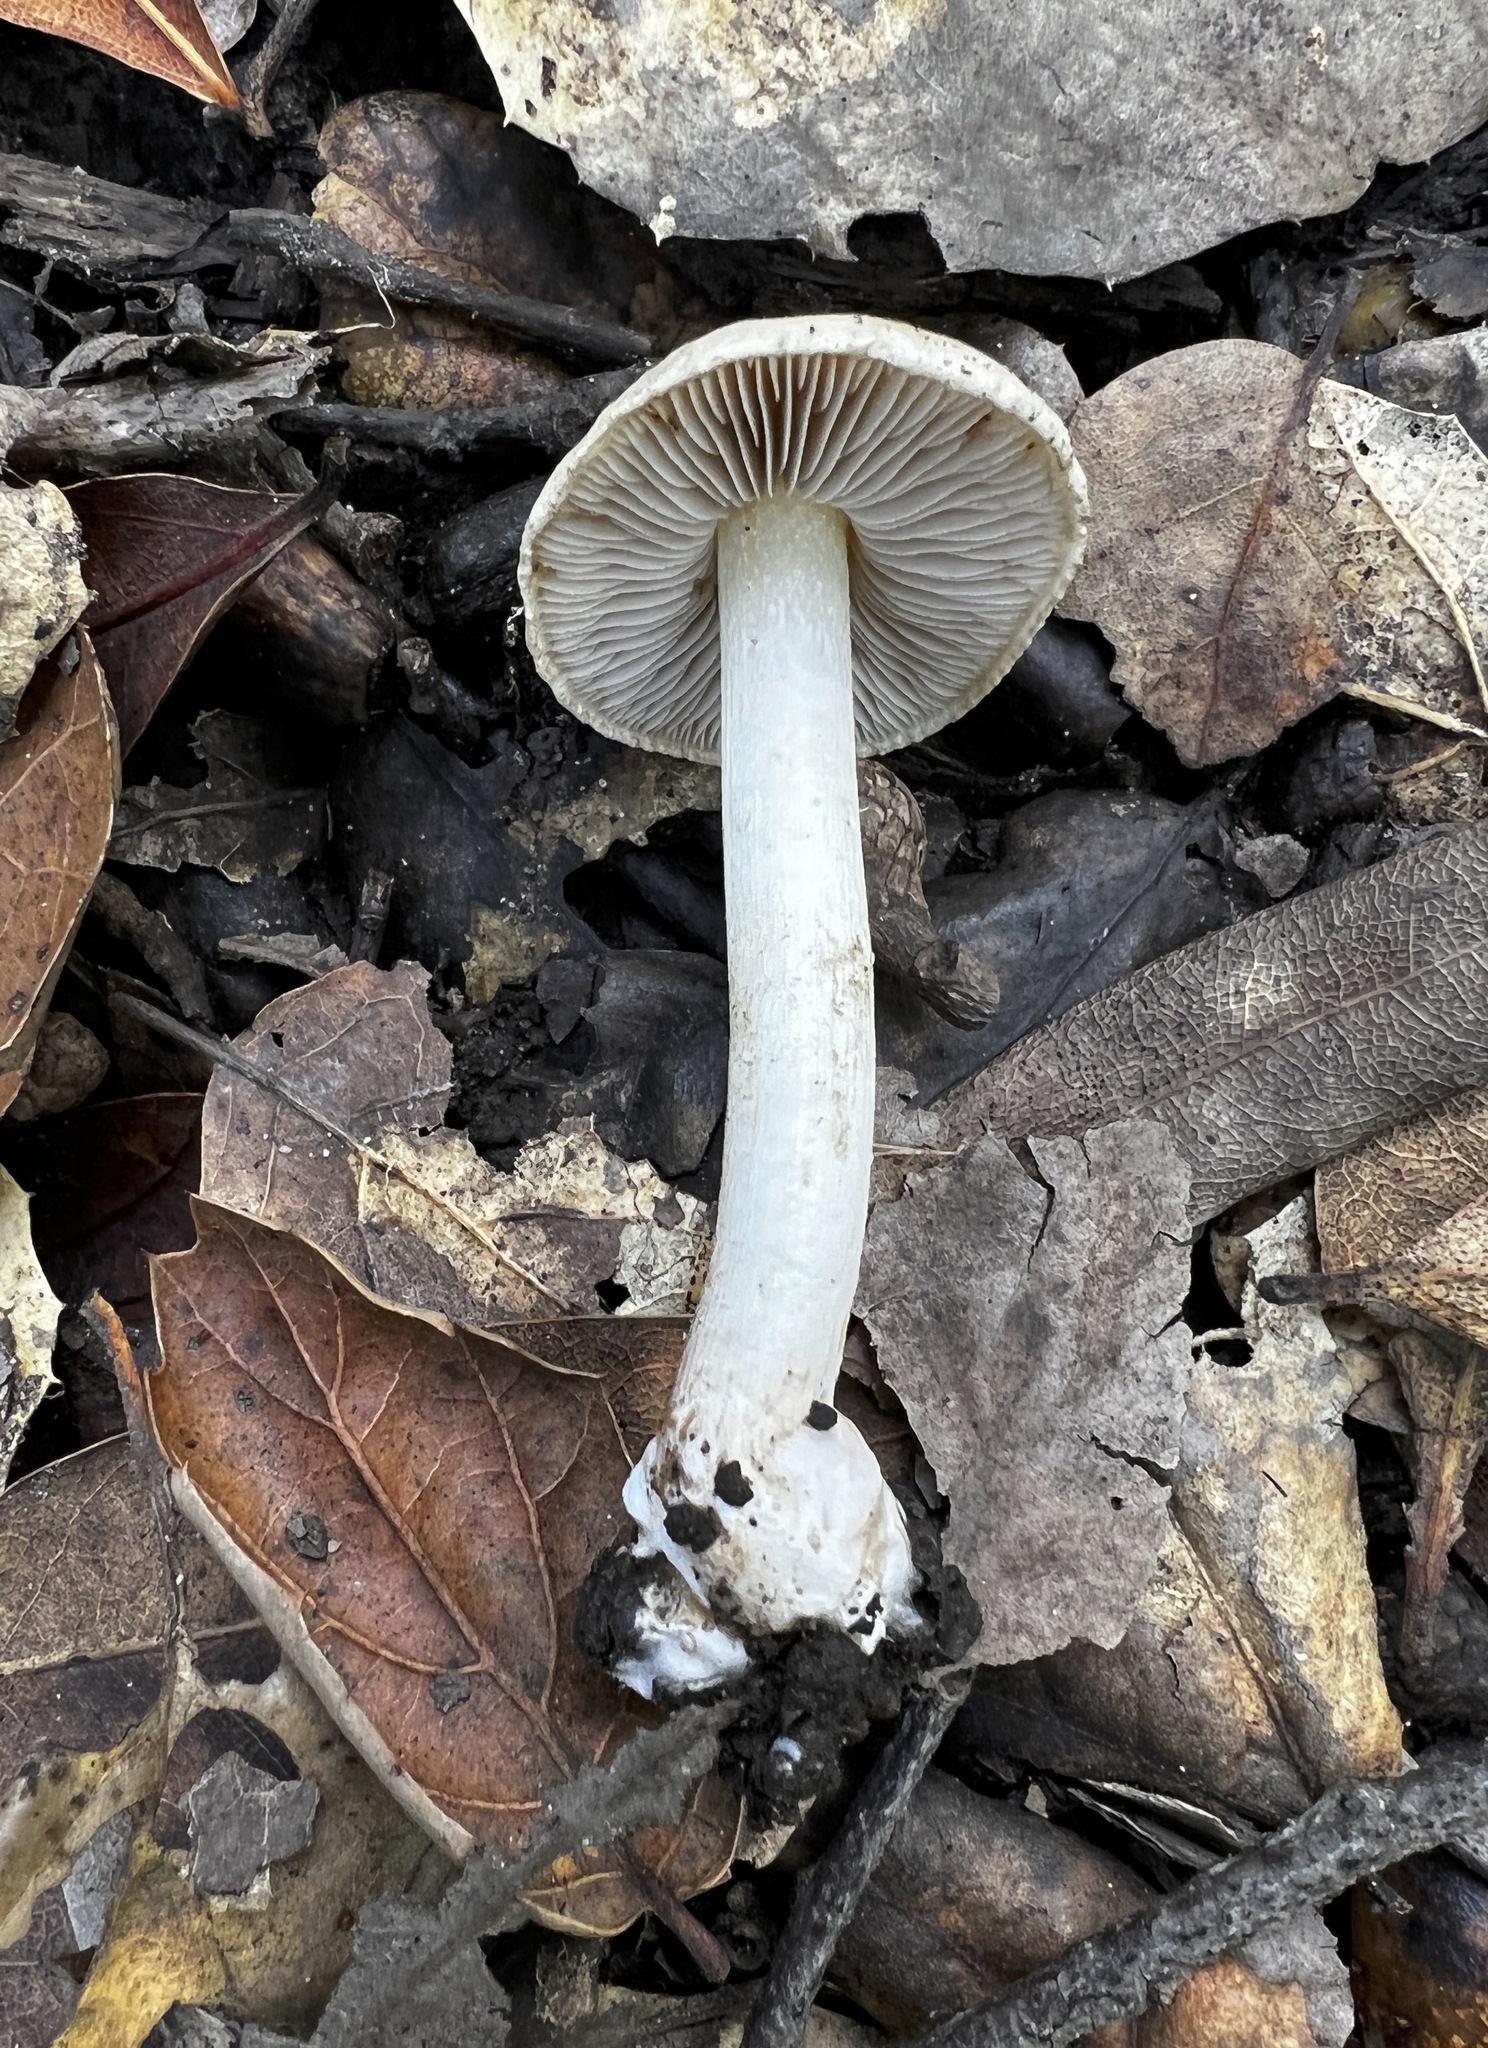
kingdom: Fungi
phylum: Basidiomycota
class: Agaricomycetes
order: Agaricales
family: Inocybaceae
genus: Inocybe
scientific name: Inocybe fraudans
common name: Pear fibrecap
